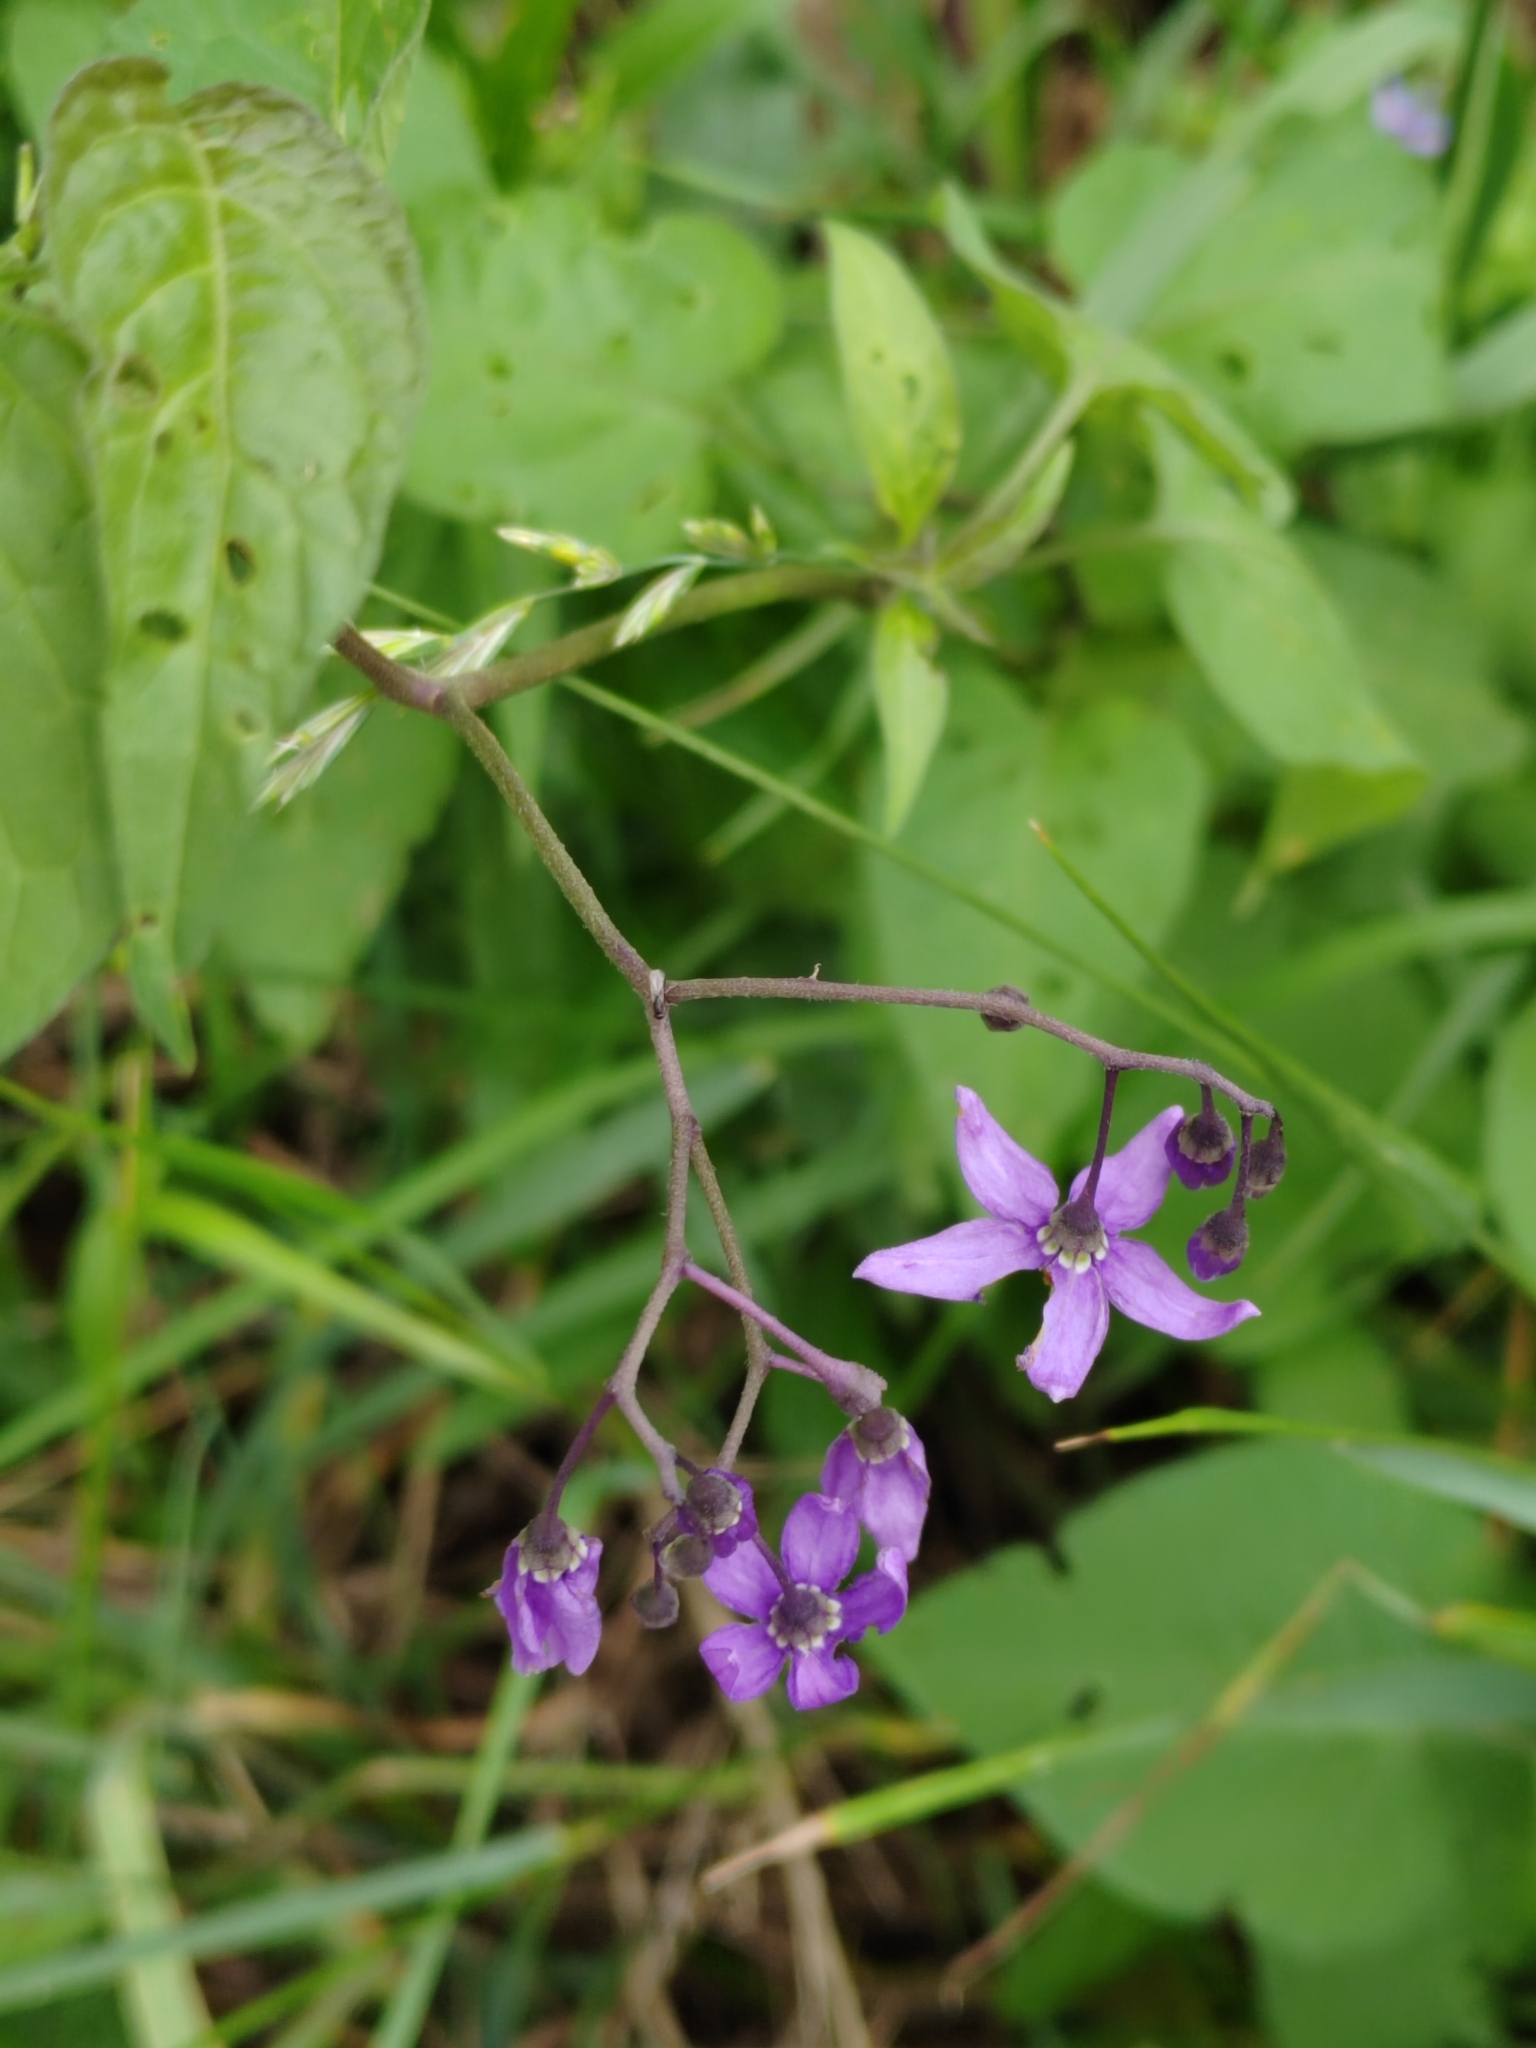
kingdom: Plantae
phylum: Tracheophyta
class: Magnoliopsida
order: Solanales
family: Solanaceae
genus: Solanum
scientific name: Solanum dulcamara
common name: Climbing nightshade
